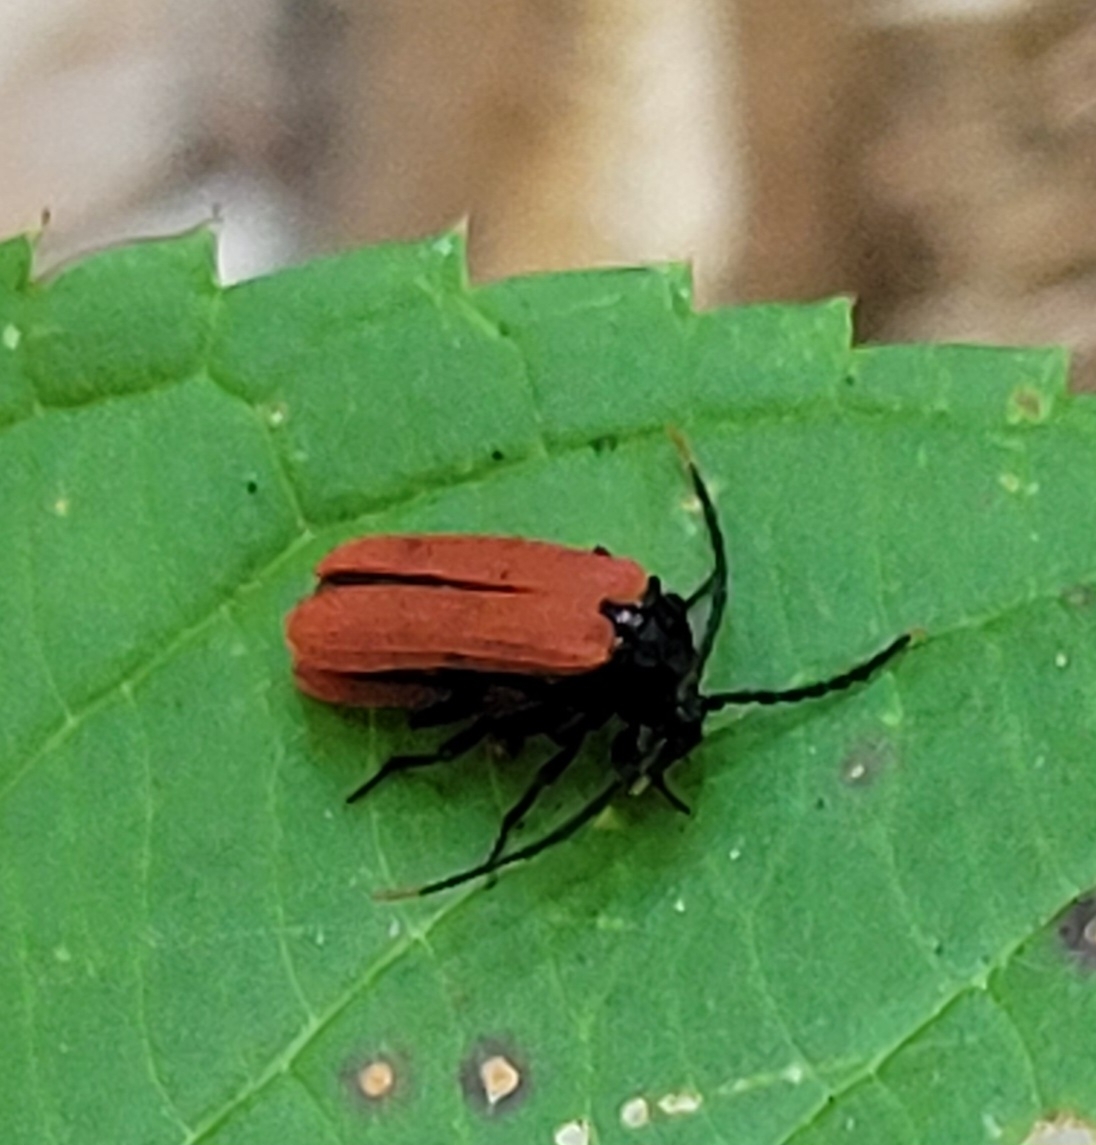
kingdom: Animalia
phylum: Arthropoda
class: Insecta
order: Coleoptera
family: Lycidae
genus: Platycis
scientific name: Platycis minutus
